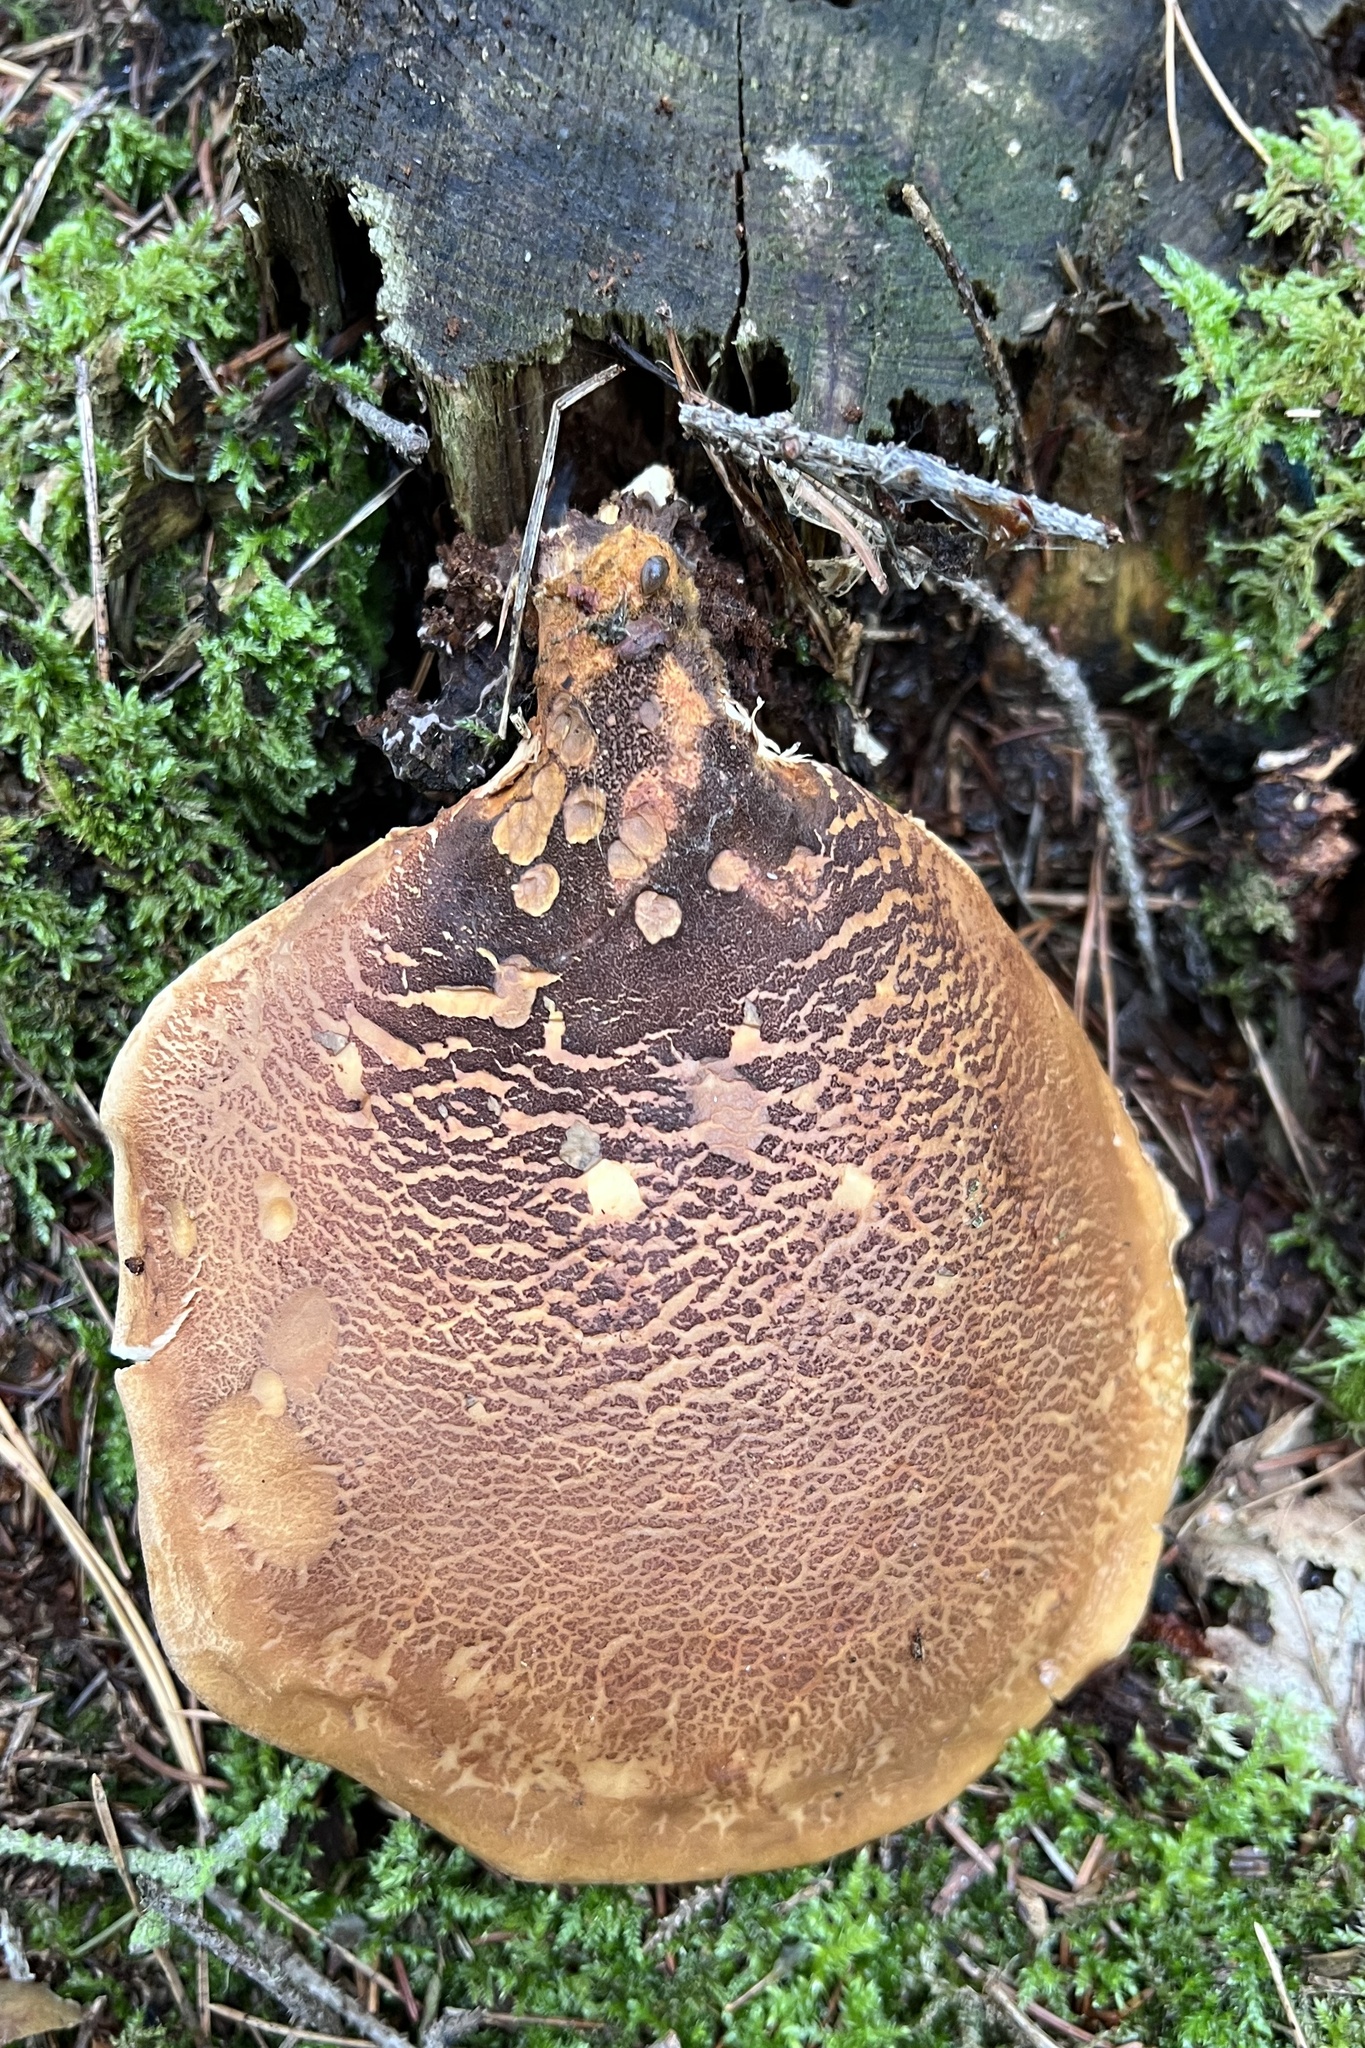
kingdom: Fungi
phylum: Basidiomycota
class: Agaricomycetes
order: Boletales
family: Tapinellaceae
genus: Tapinella
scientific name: Tapinella atrotomentosa
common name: Velvet rollrim
